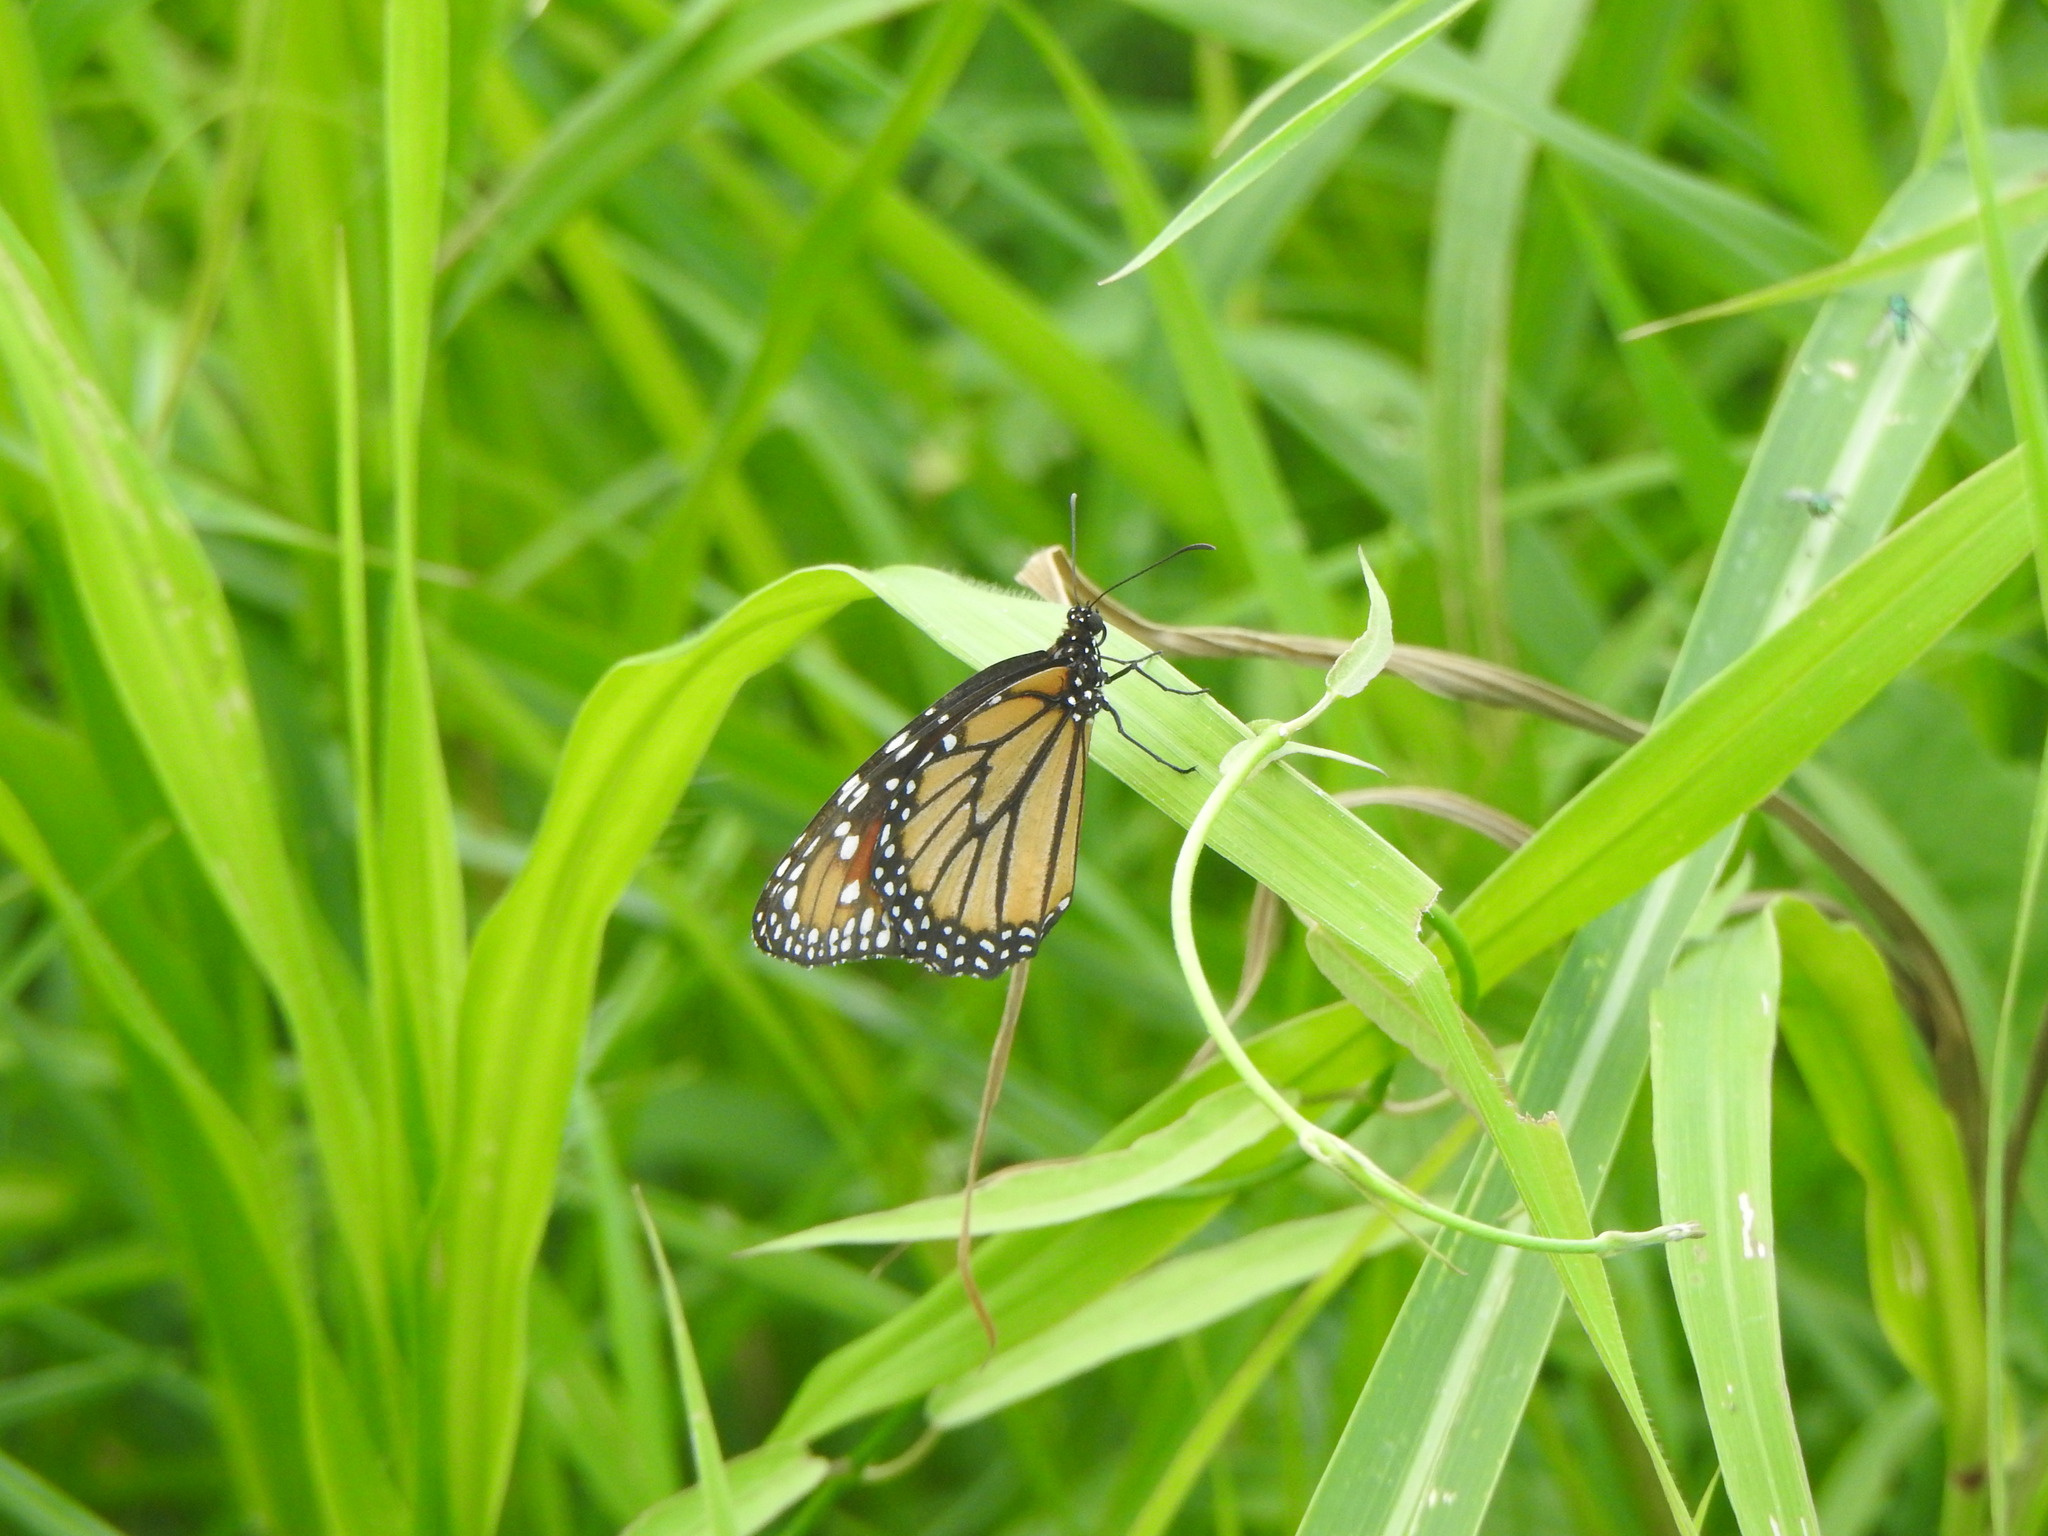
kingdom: Animalia
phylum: Arthropoda
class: Insecta
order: Lepidoptera
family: Nymphalidae
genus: Danaus
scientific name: Danaus gilippus
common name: Queen
